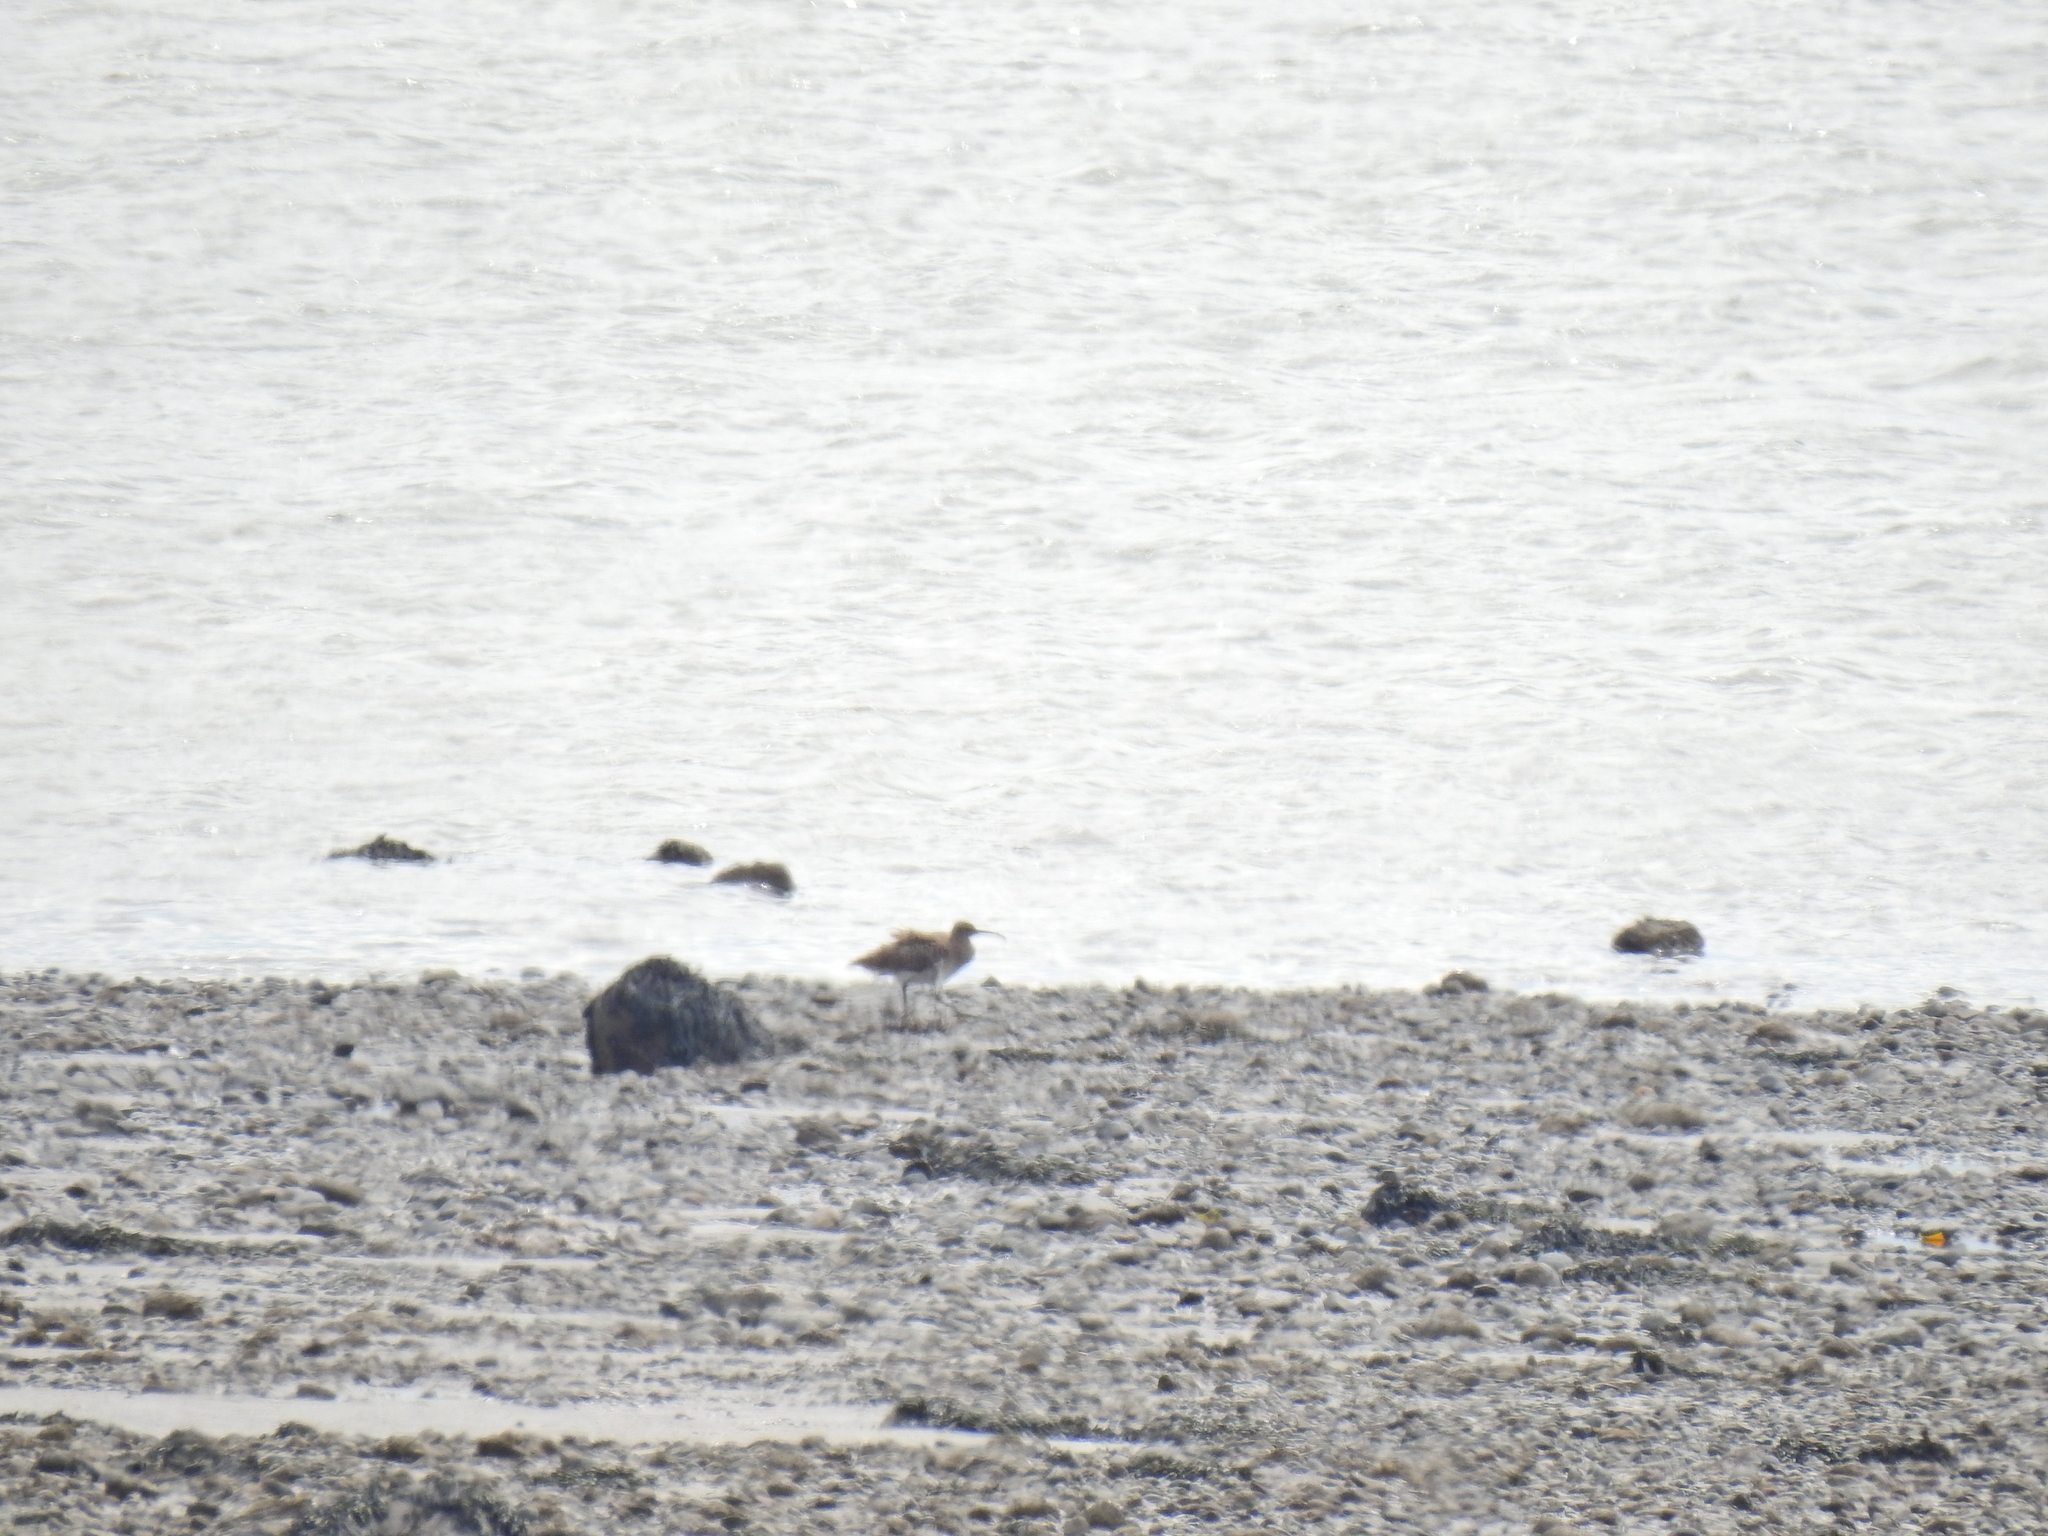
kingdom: Animalia
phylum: Chordata
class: Aves
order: Charadriiformes
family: Scolopacidae
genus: Numenius
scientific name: Numenius phaeopus
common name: Whimbrel
